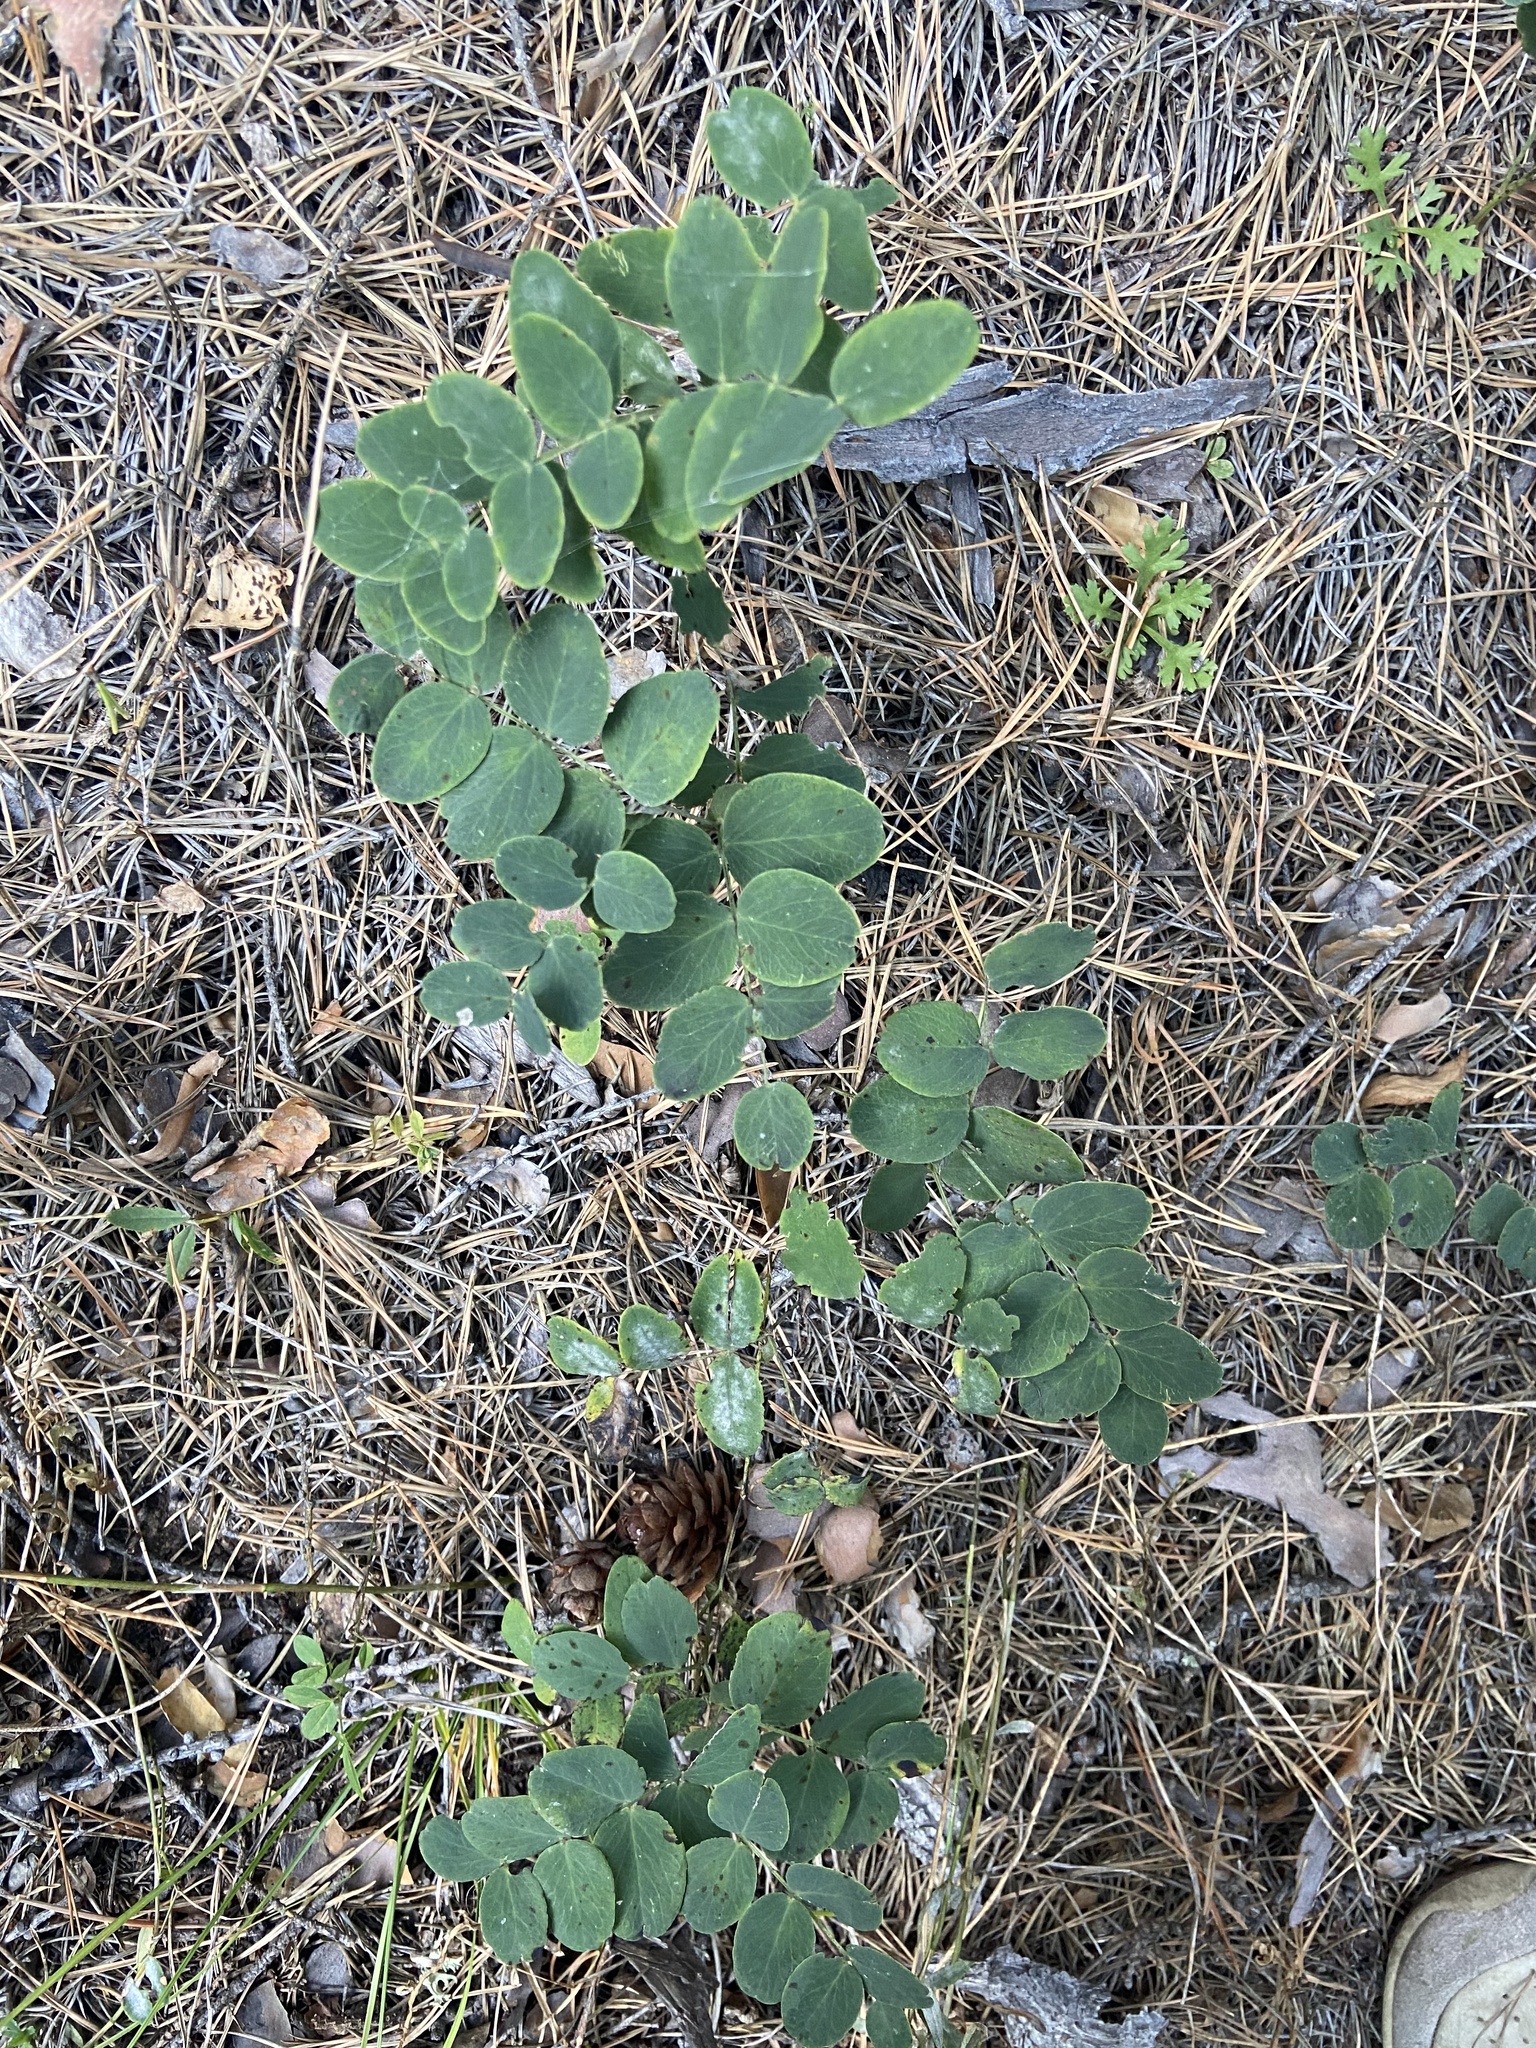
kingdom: Plantae
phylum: Tracheophyta
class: Magnoliopsida
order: Fabales
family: Fabaceae
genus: Lathyrus
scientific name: Lathyrus humilis
